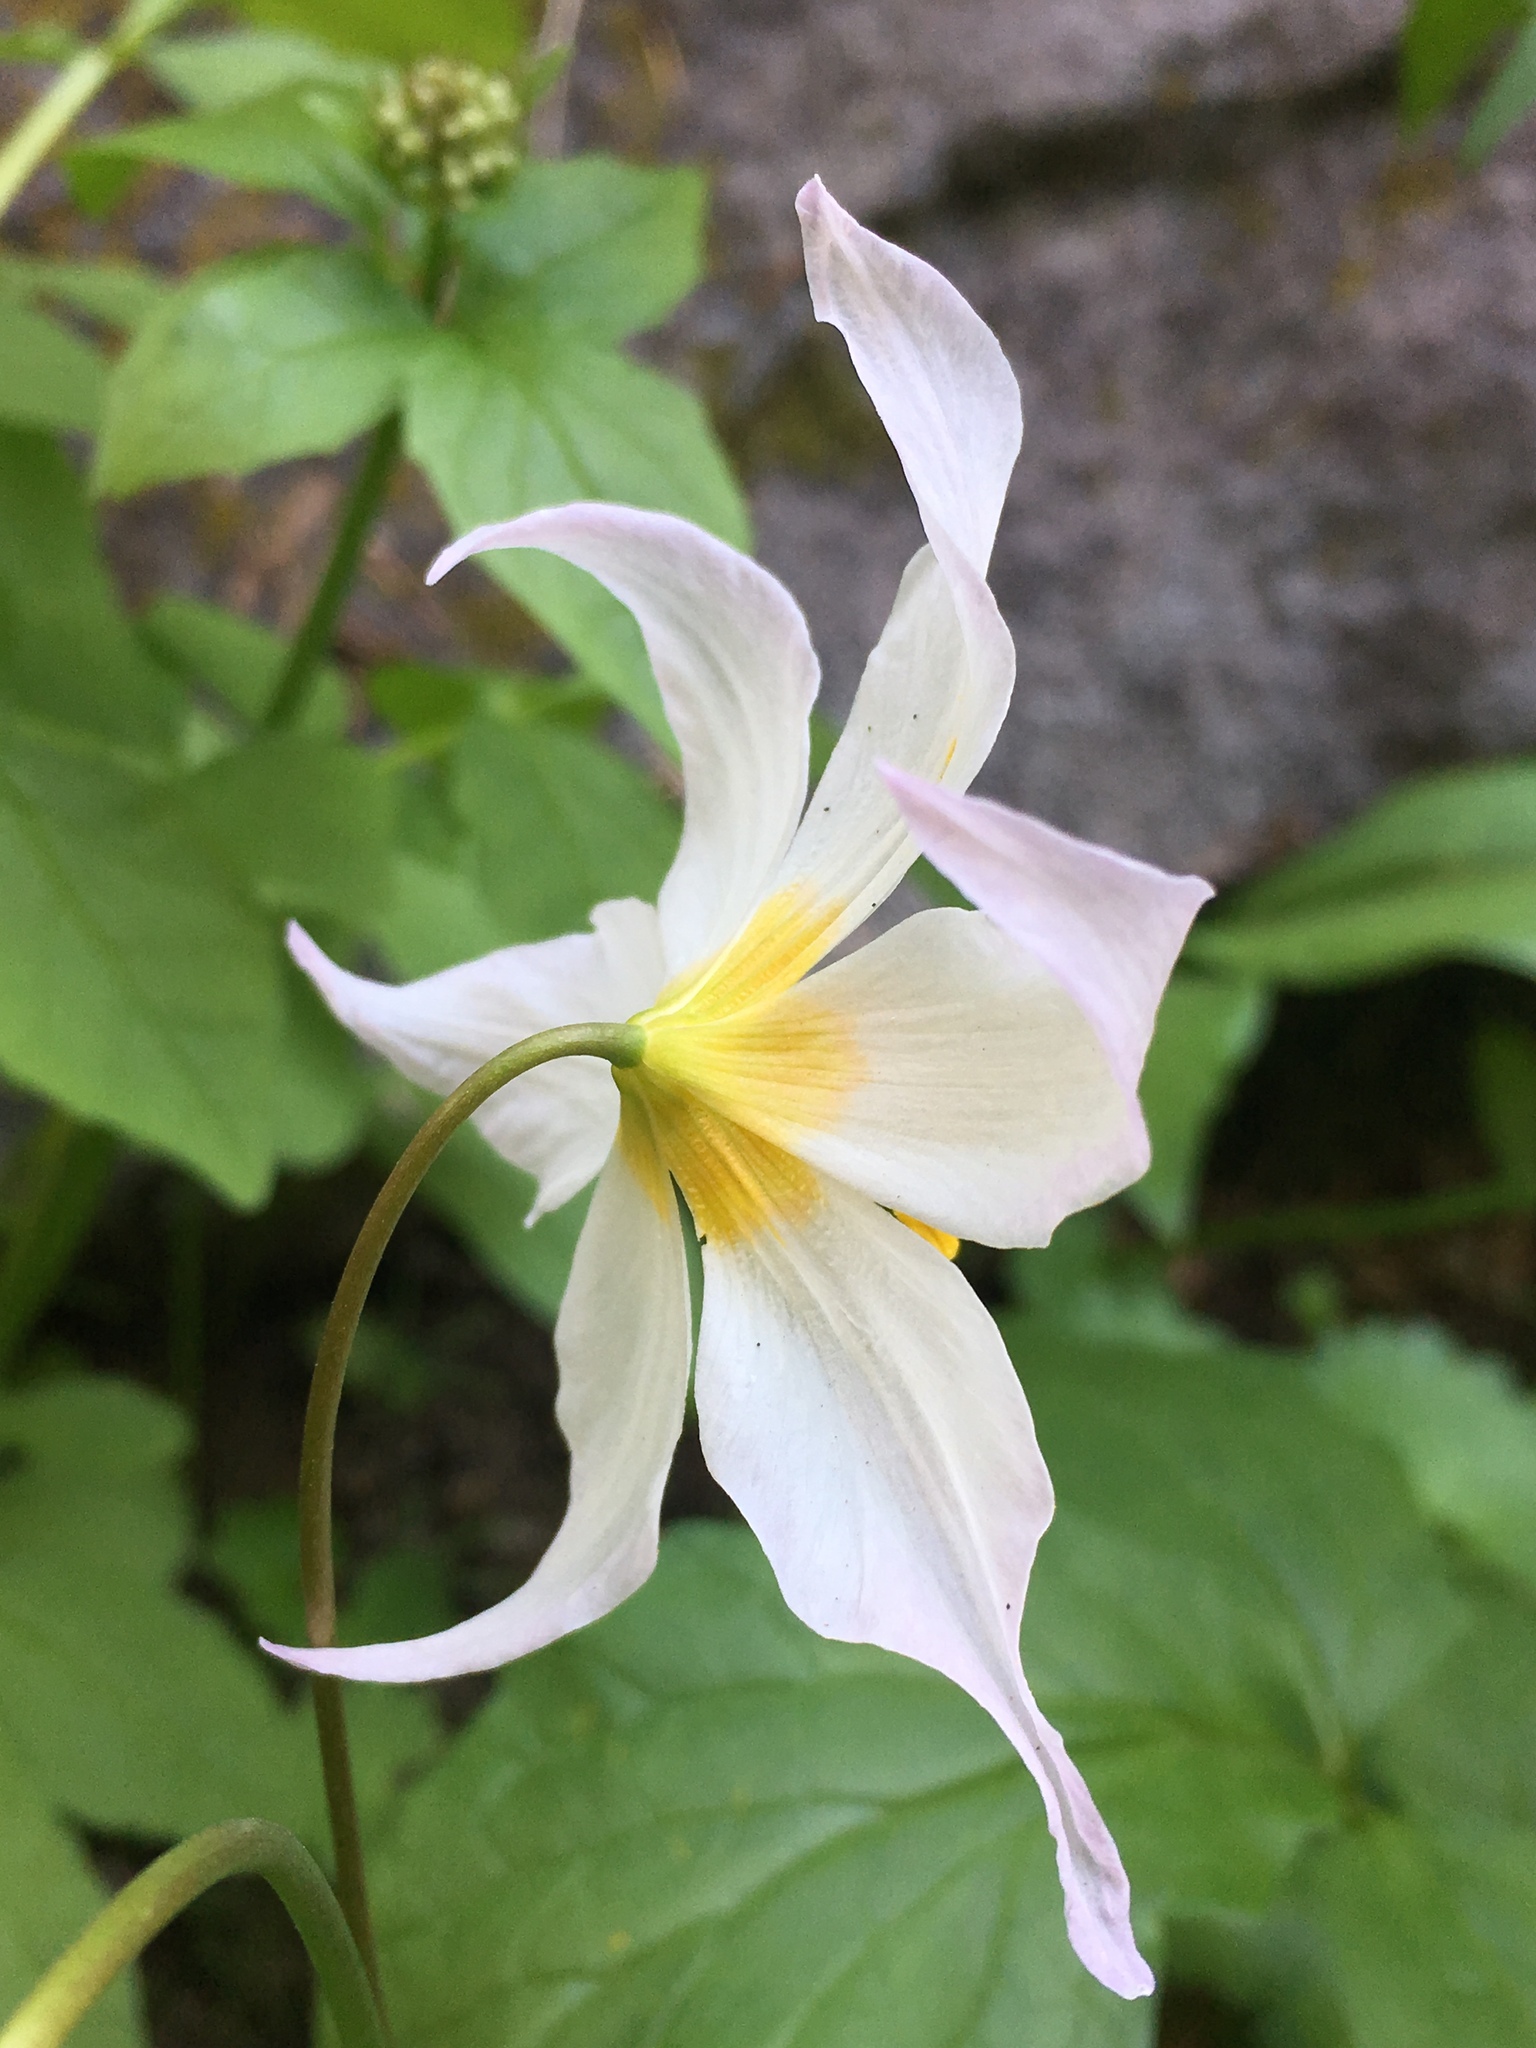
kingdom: Plantae
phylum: Tracheophyta
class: Liliopsida
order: Liliales
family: Liliaceae
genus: Erythronium
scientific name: Erythronium montanum
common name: Avalanche lily
